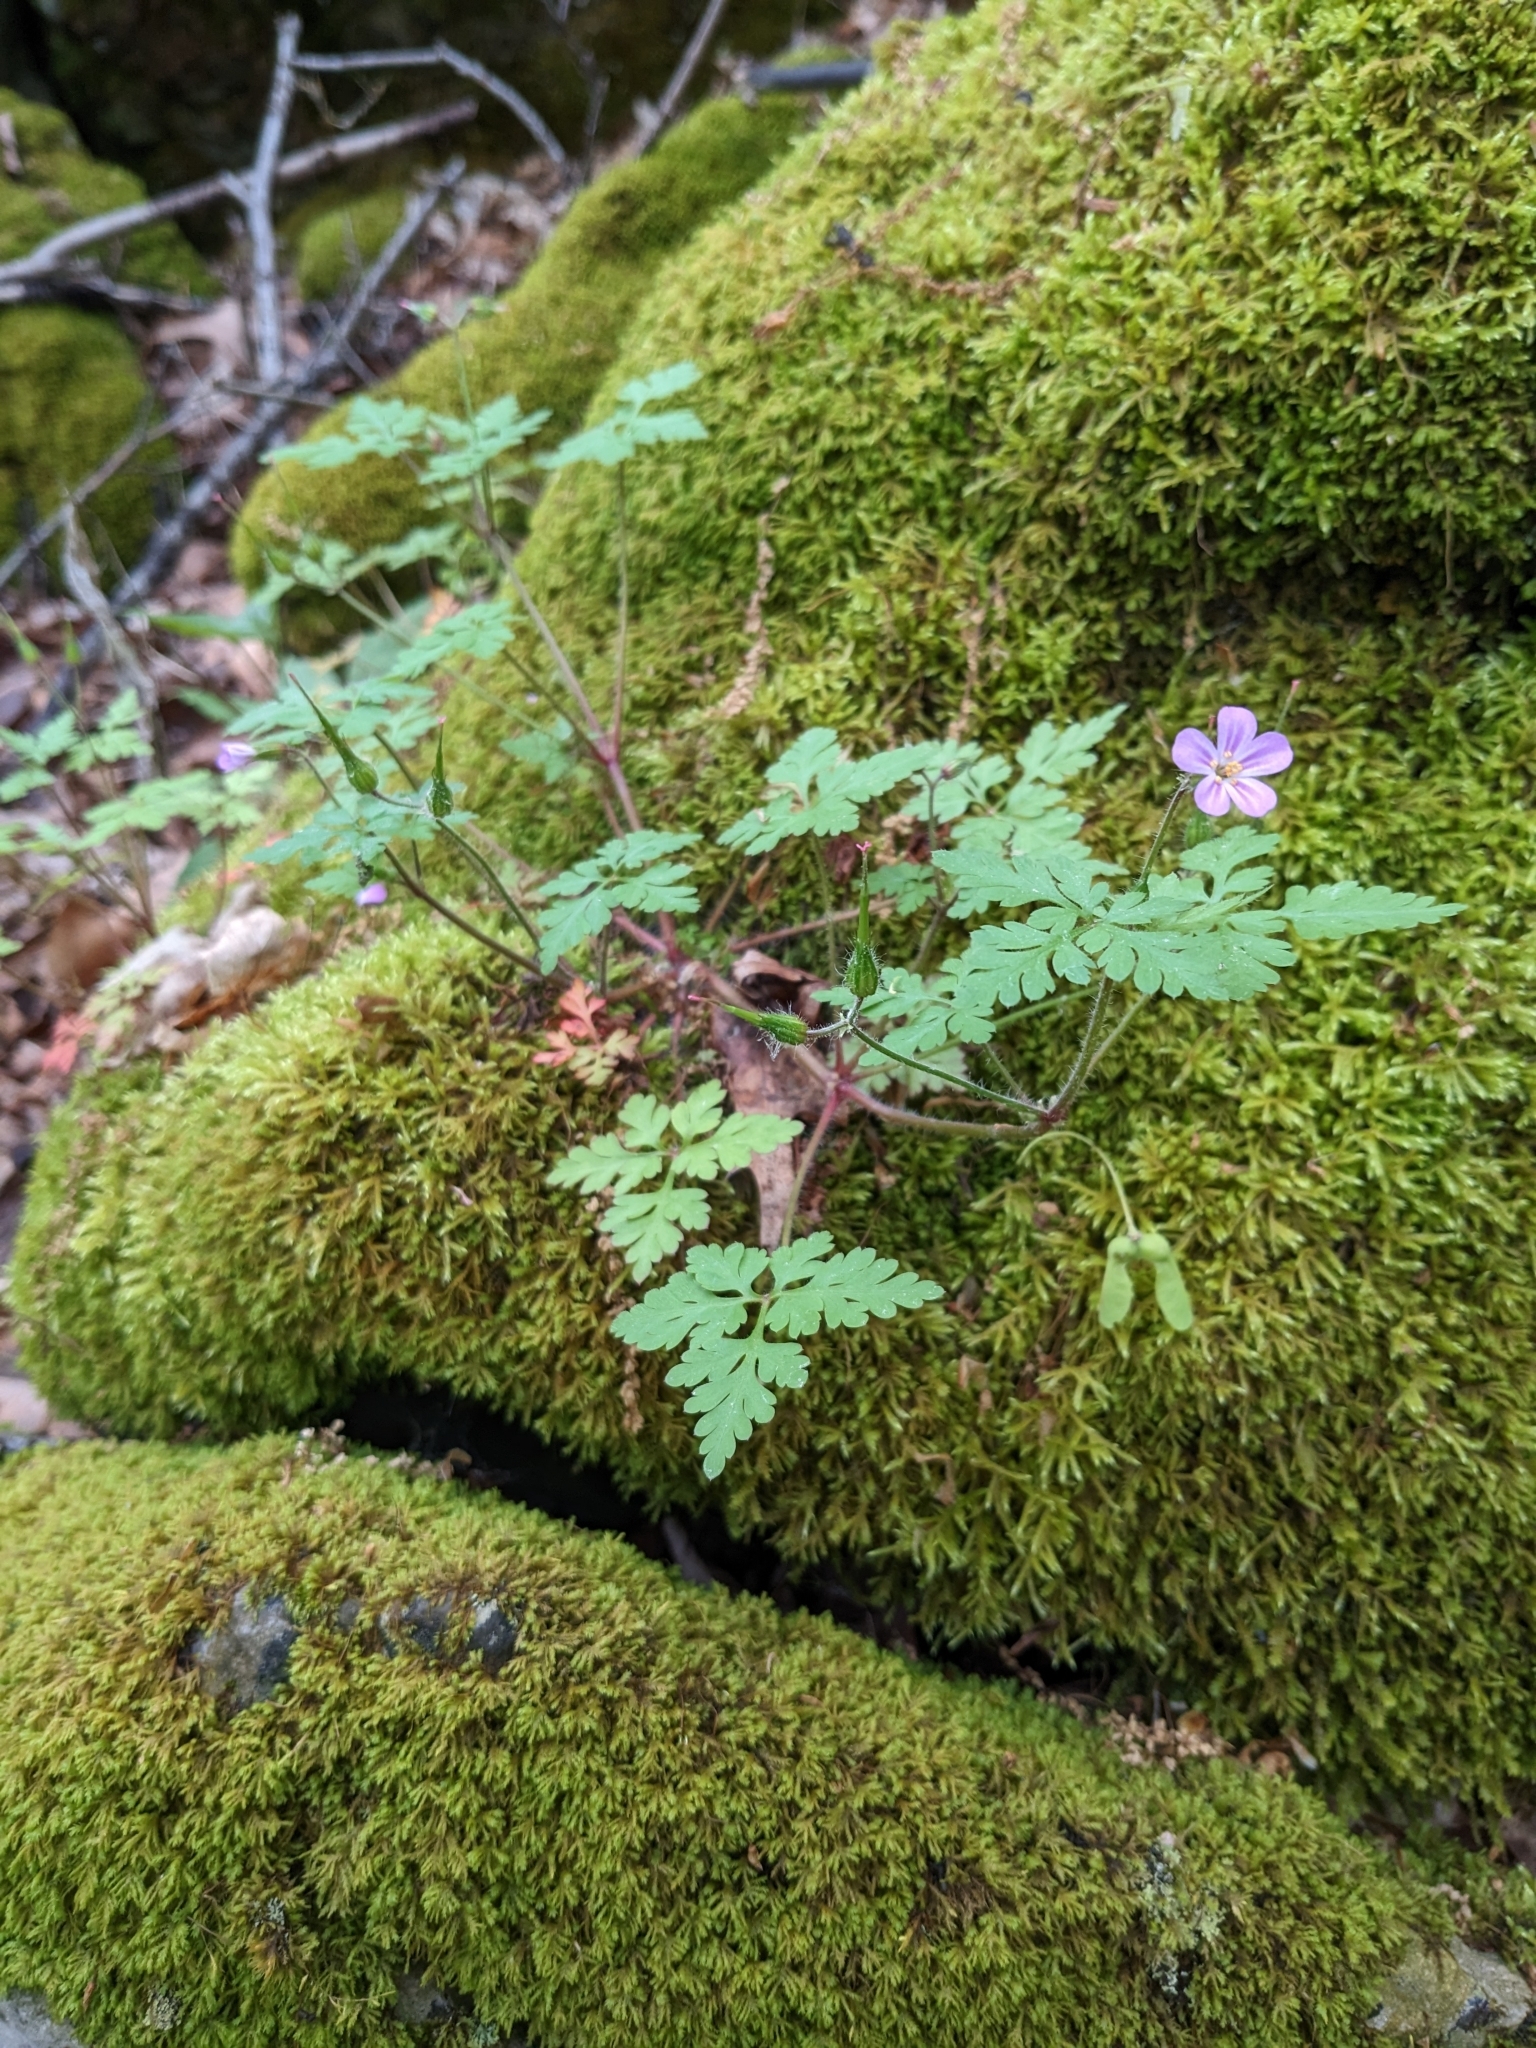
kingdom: Plantae
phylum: Tracheophyta
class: Magnoliopsida
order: Geraniales
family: Geraniaceae
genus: Geranium
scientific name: Geranium robertianum
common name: Herb-robert
